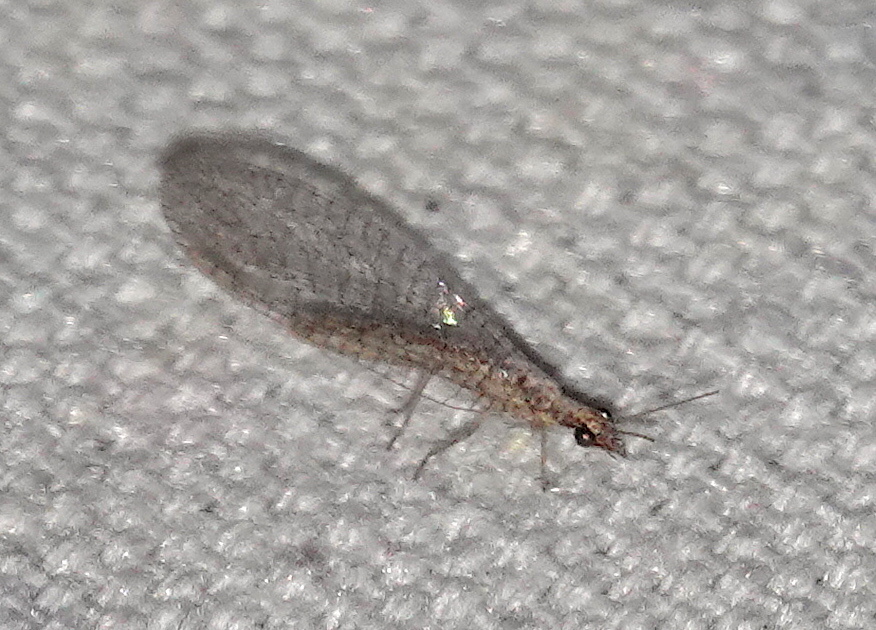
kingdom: Animalia
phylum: Arthropoda
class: Insecta
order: Neuroptera
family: Chrysopidae
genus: Eremochrysa
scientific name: Eremochrysa punctinervis
